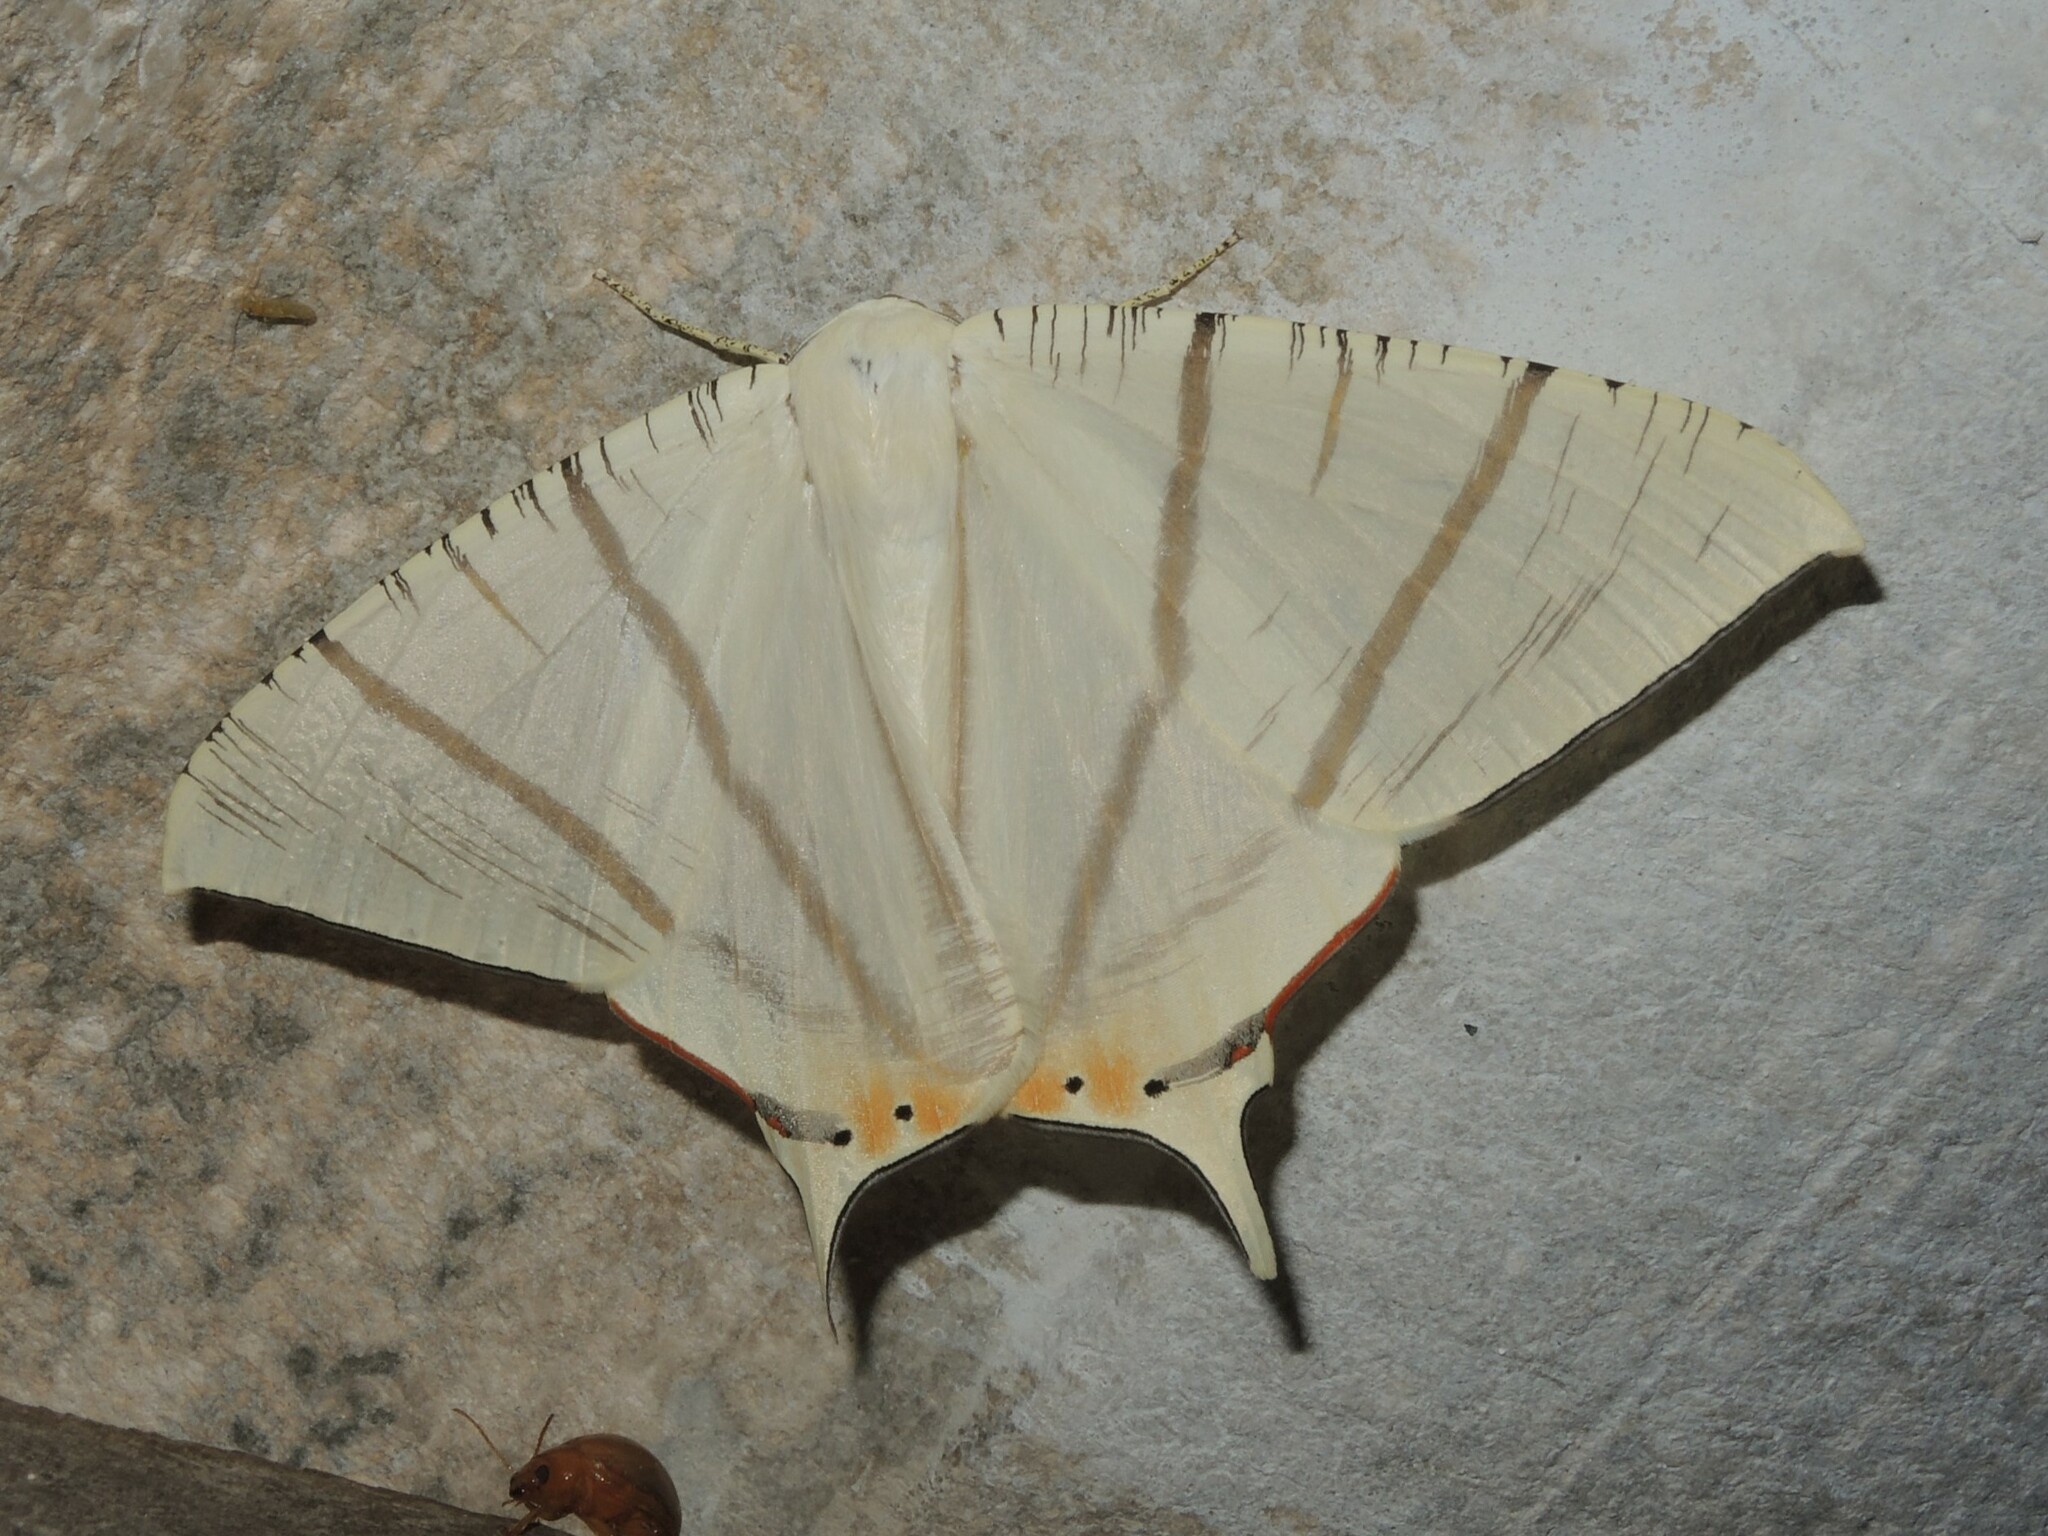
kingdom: Animalia
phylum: Arthropoda
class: Insecta
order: Lepidoptera
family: Geometridae
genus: Ourapteryx
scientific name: Ourapteryx marginata
